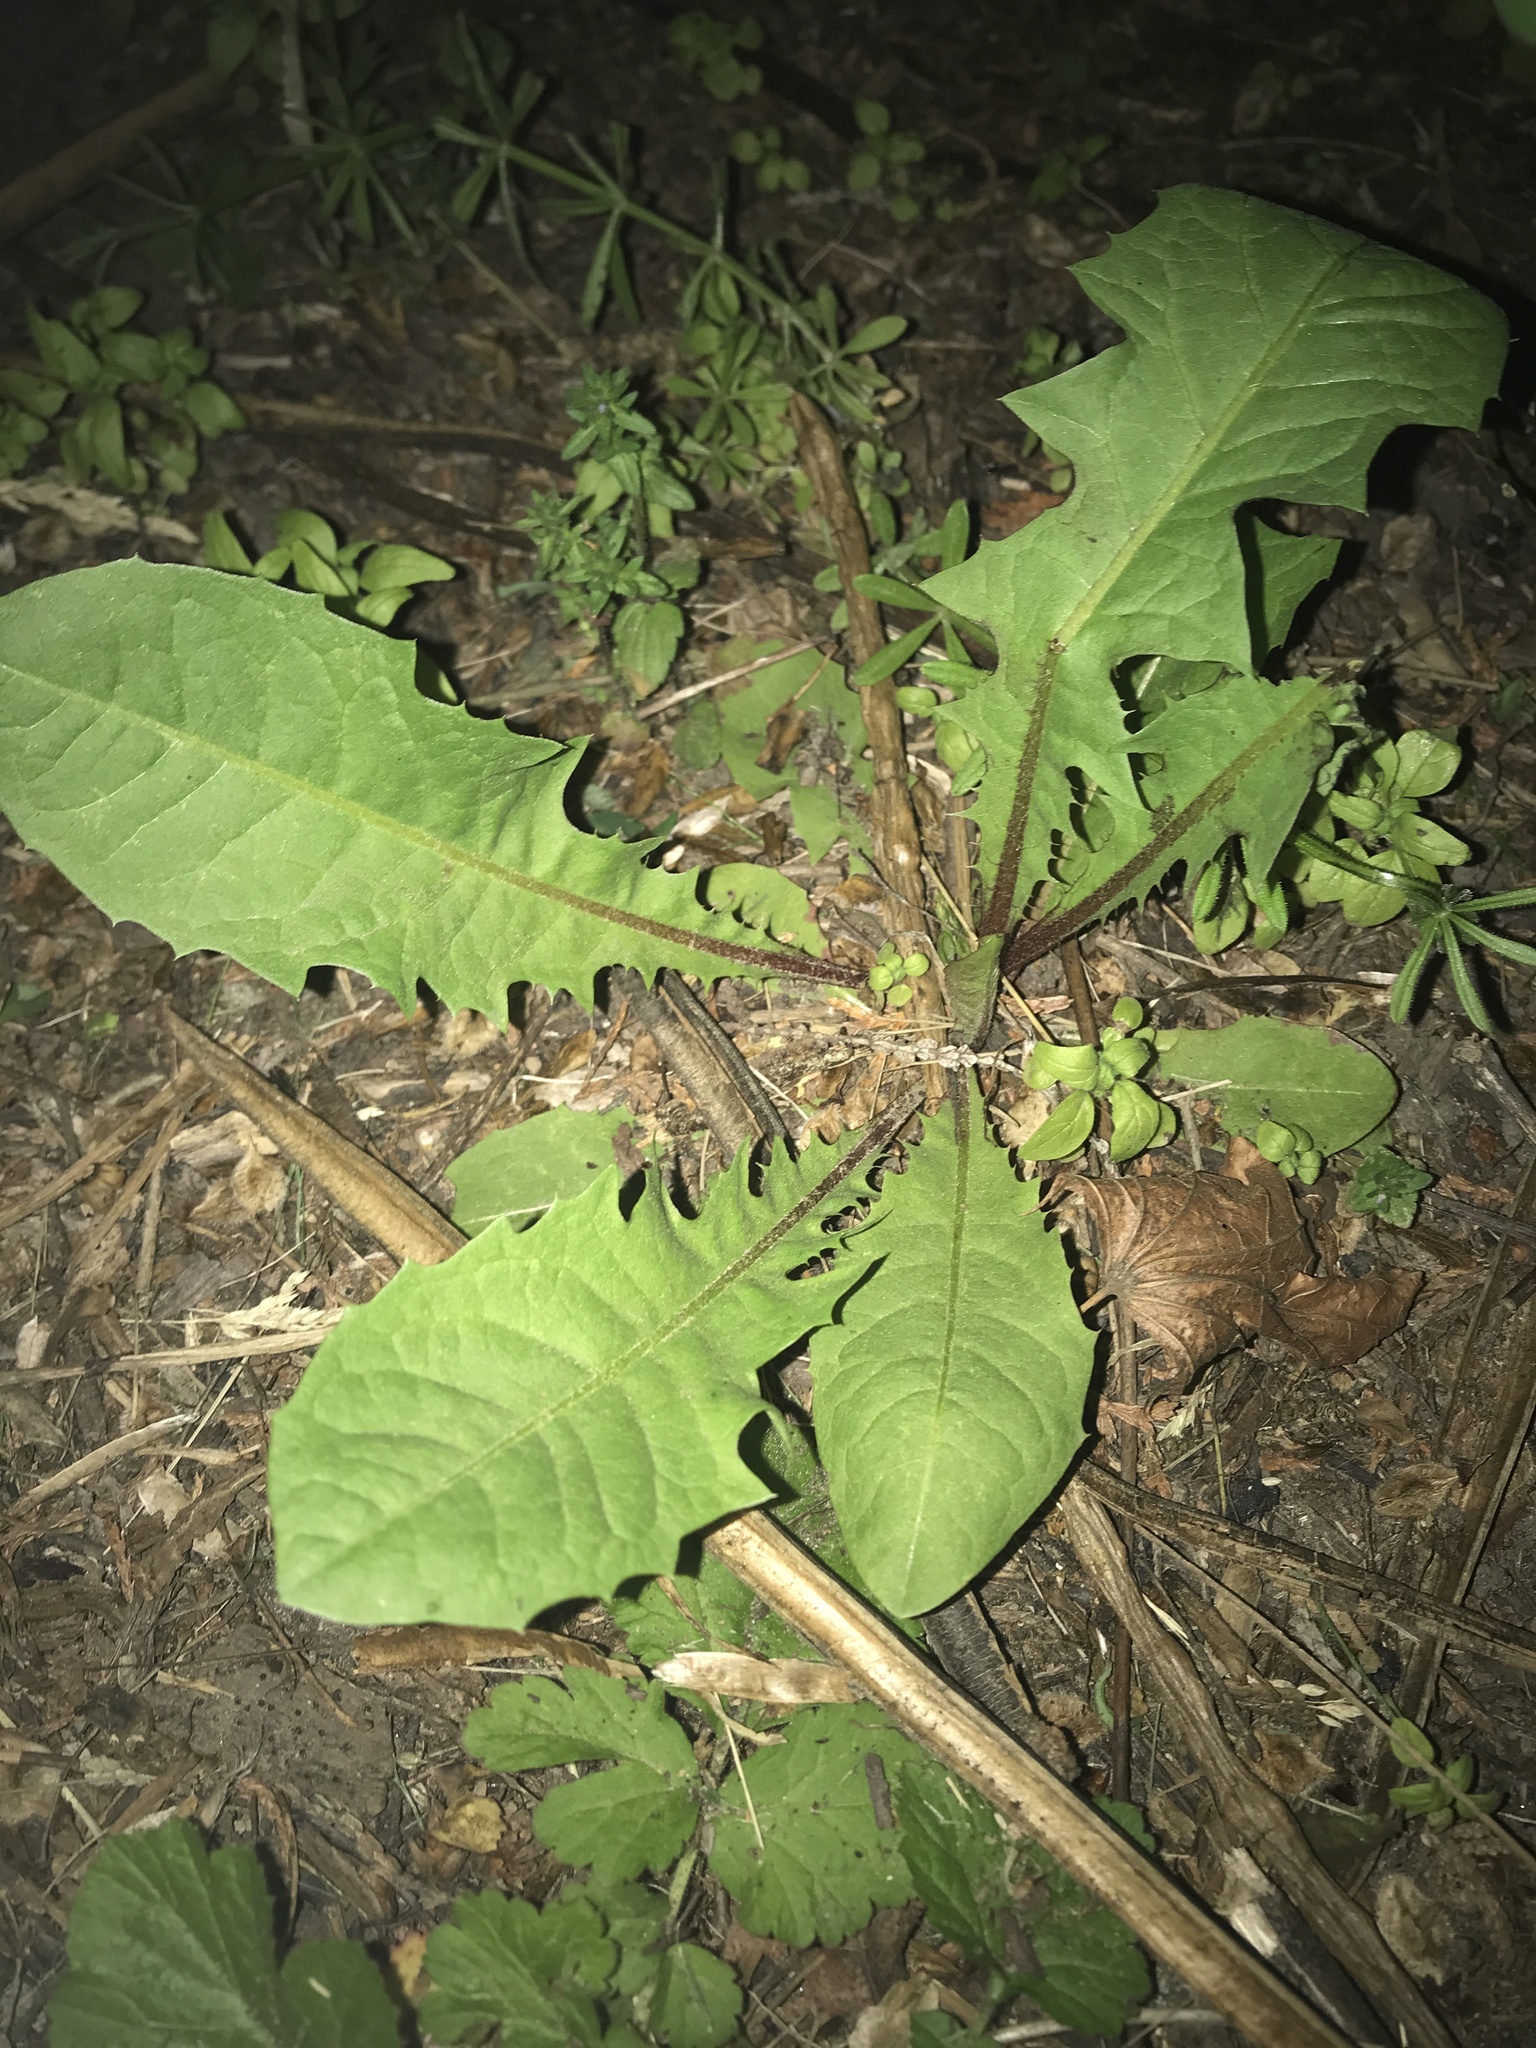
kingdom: Plantae
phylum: Tracheophyta
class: Magnoliopsida
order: Asterales
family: Asteraceae
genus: Taraxacum
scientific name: Taraxacum officinale
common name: Common dandelion
